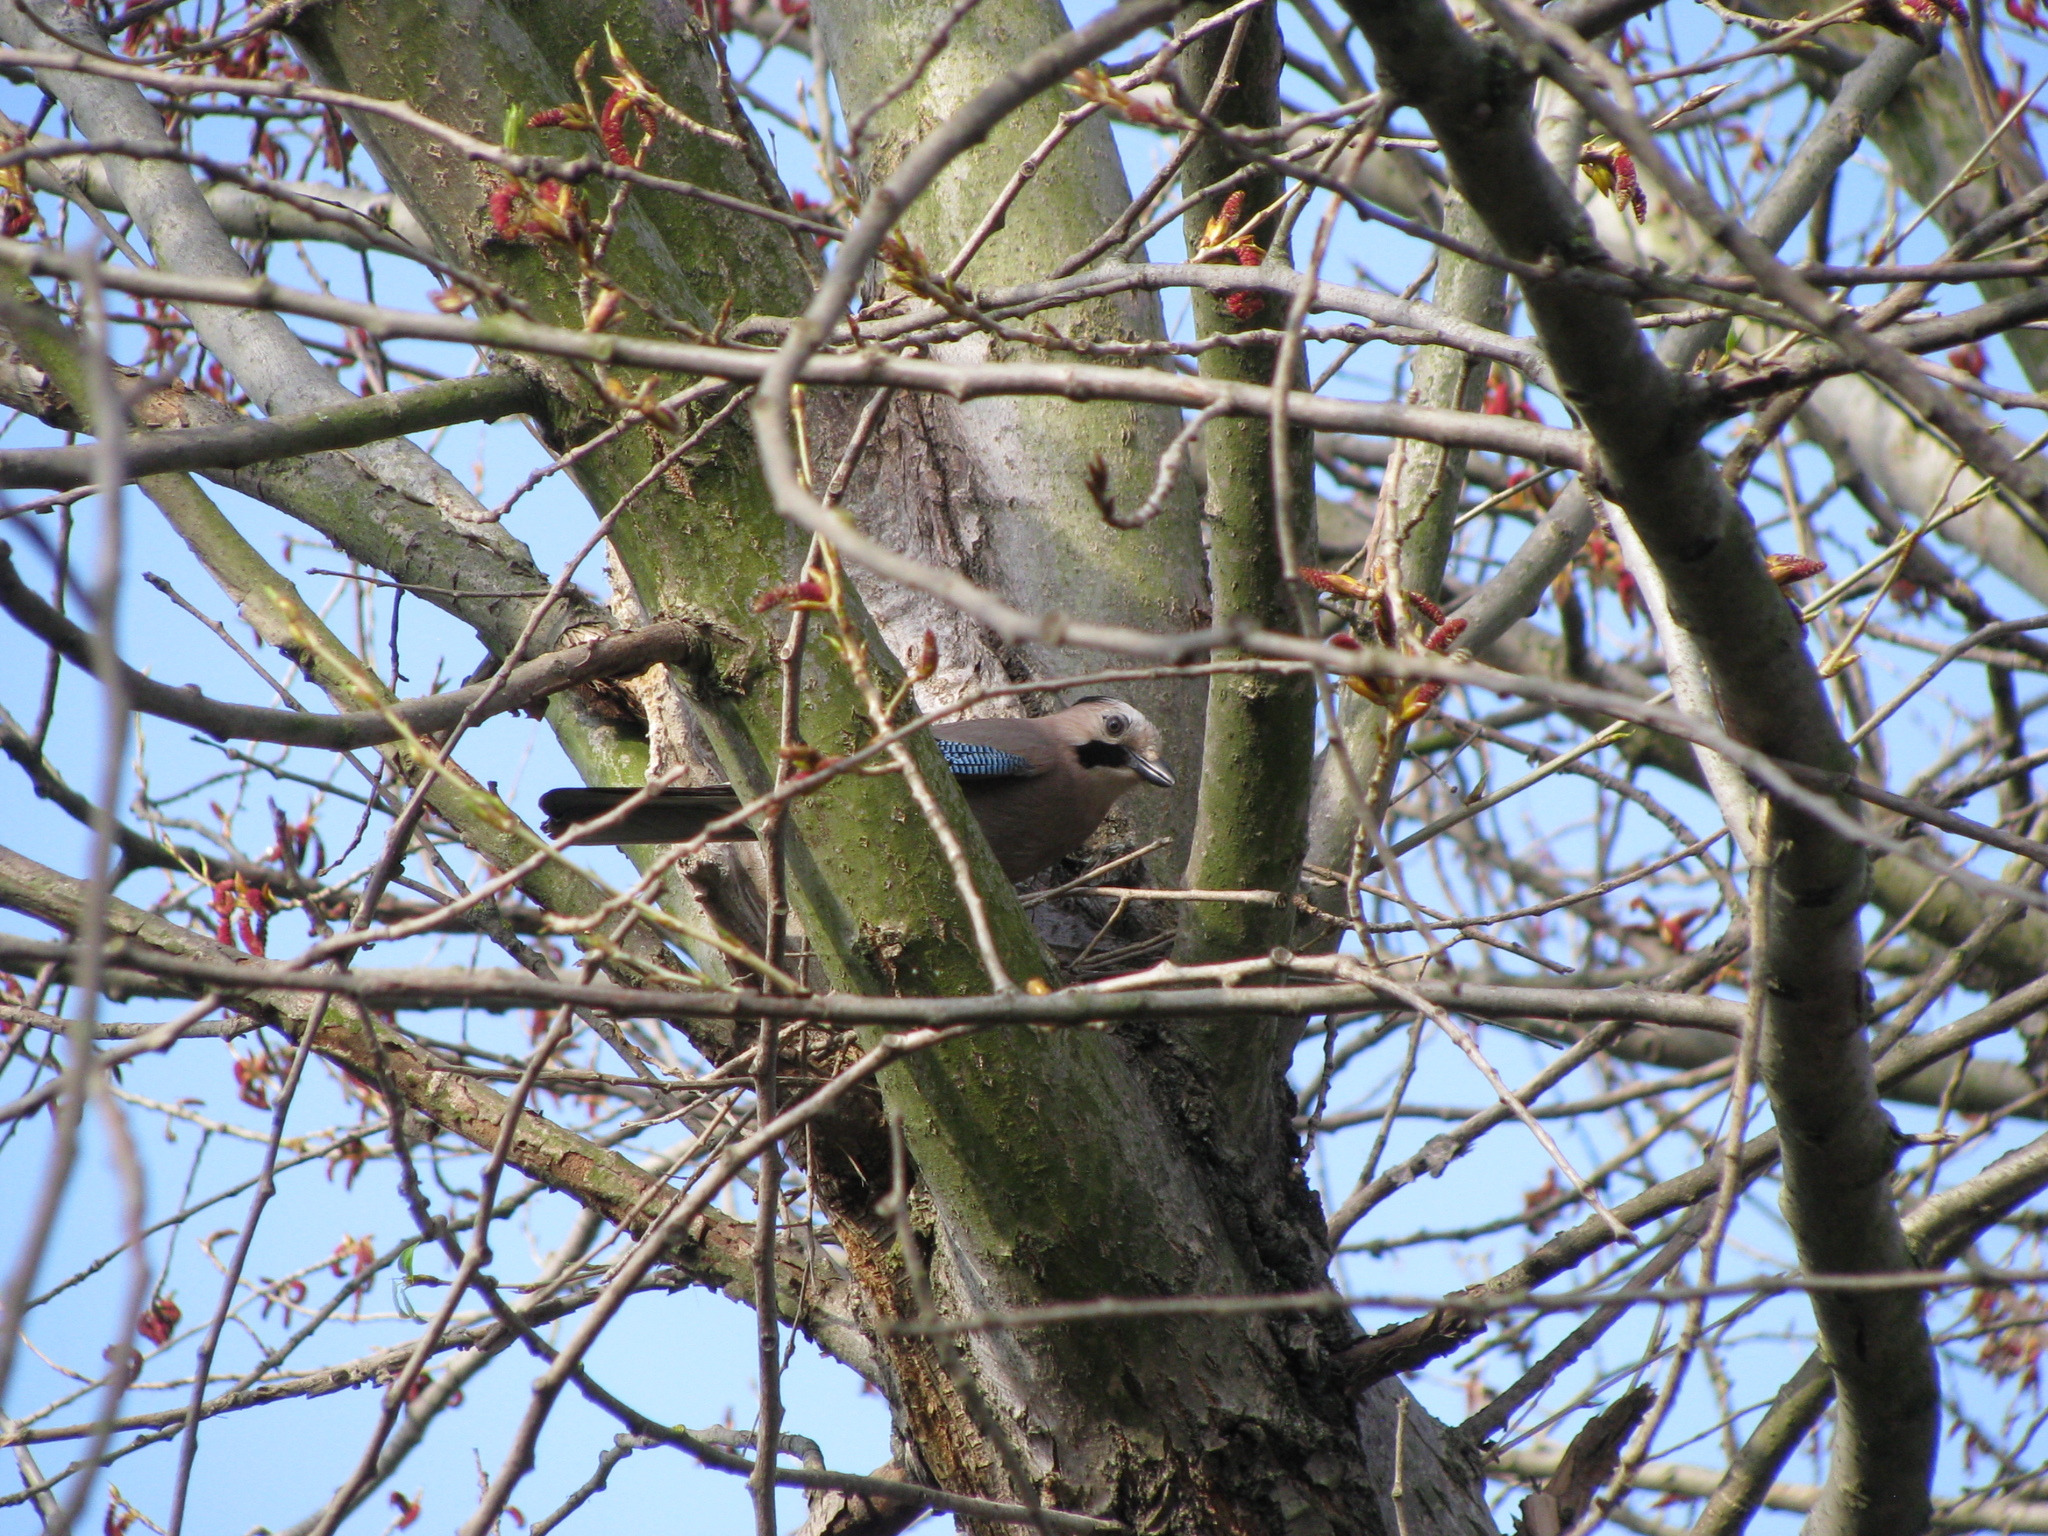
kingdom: Animalia
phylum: Chordata
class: Aves
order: Passeriformes
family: Corvidae
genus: Garrulus
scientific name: Garrulus glandarius
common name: Eurasian jay
